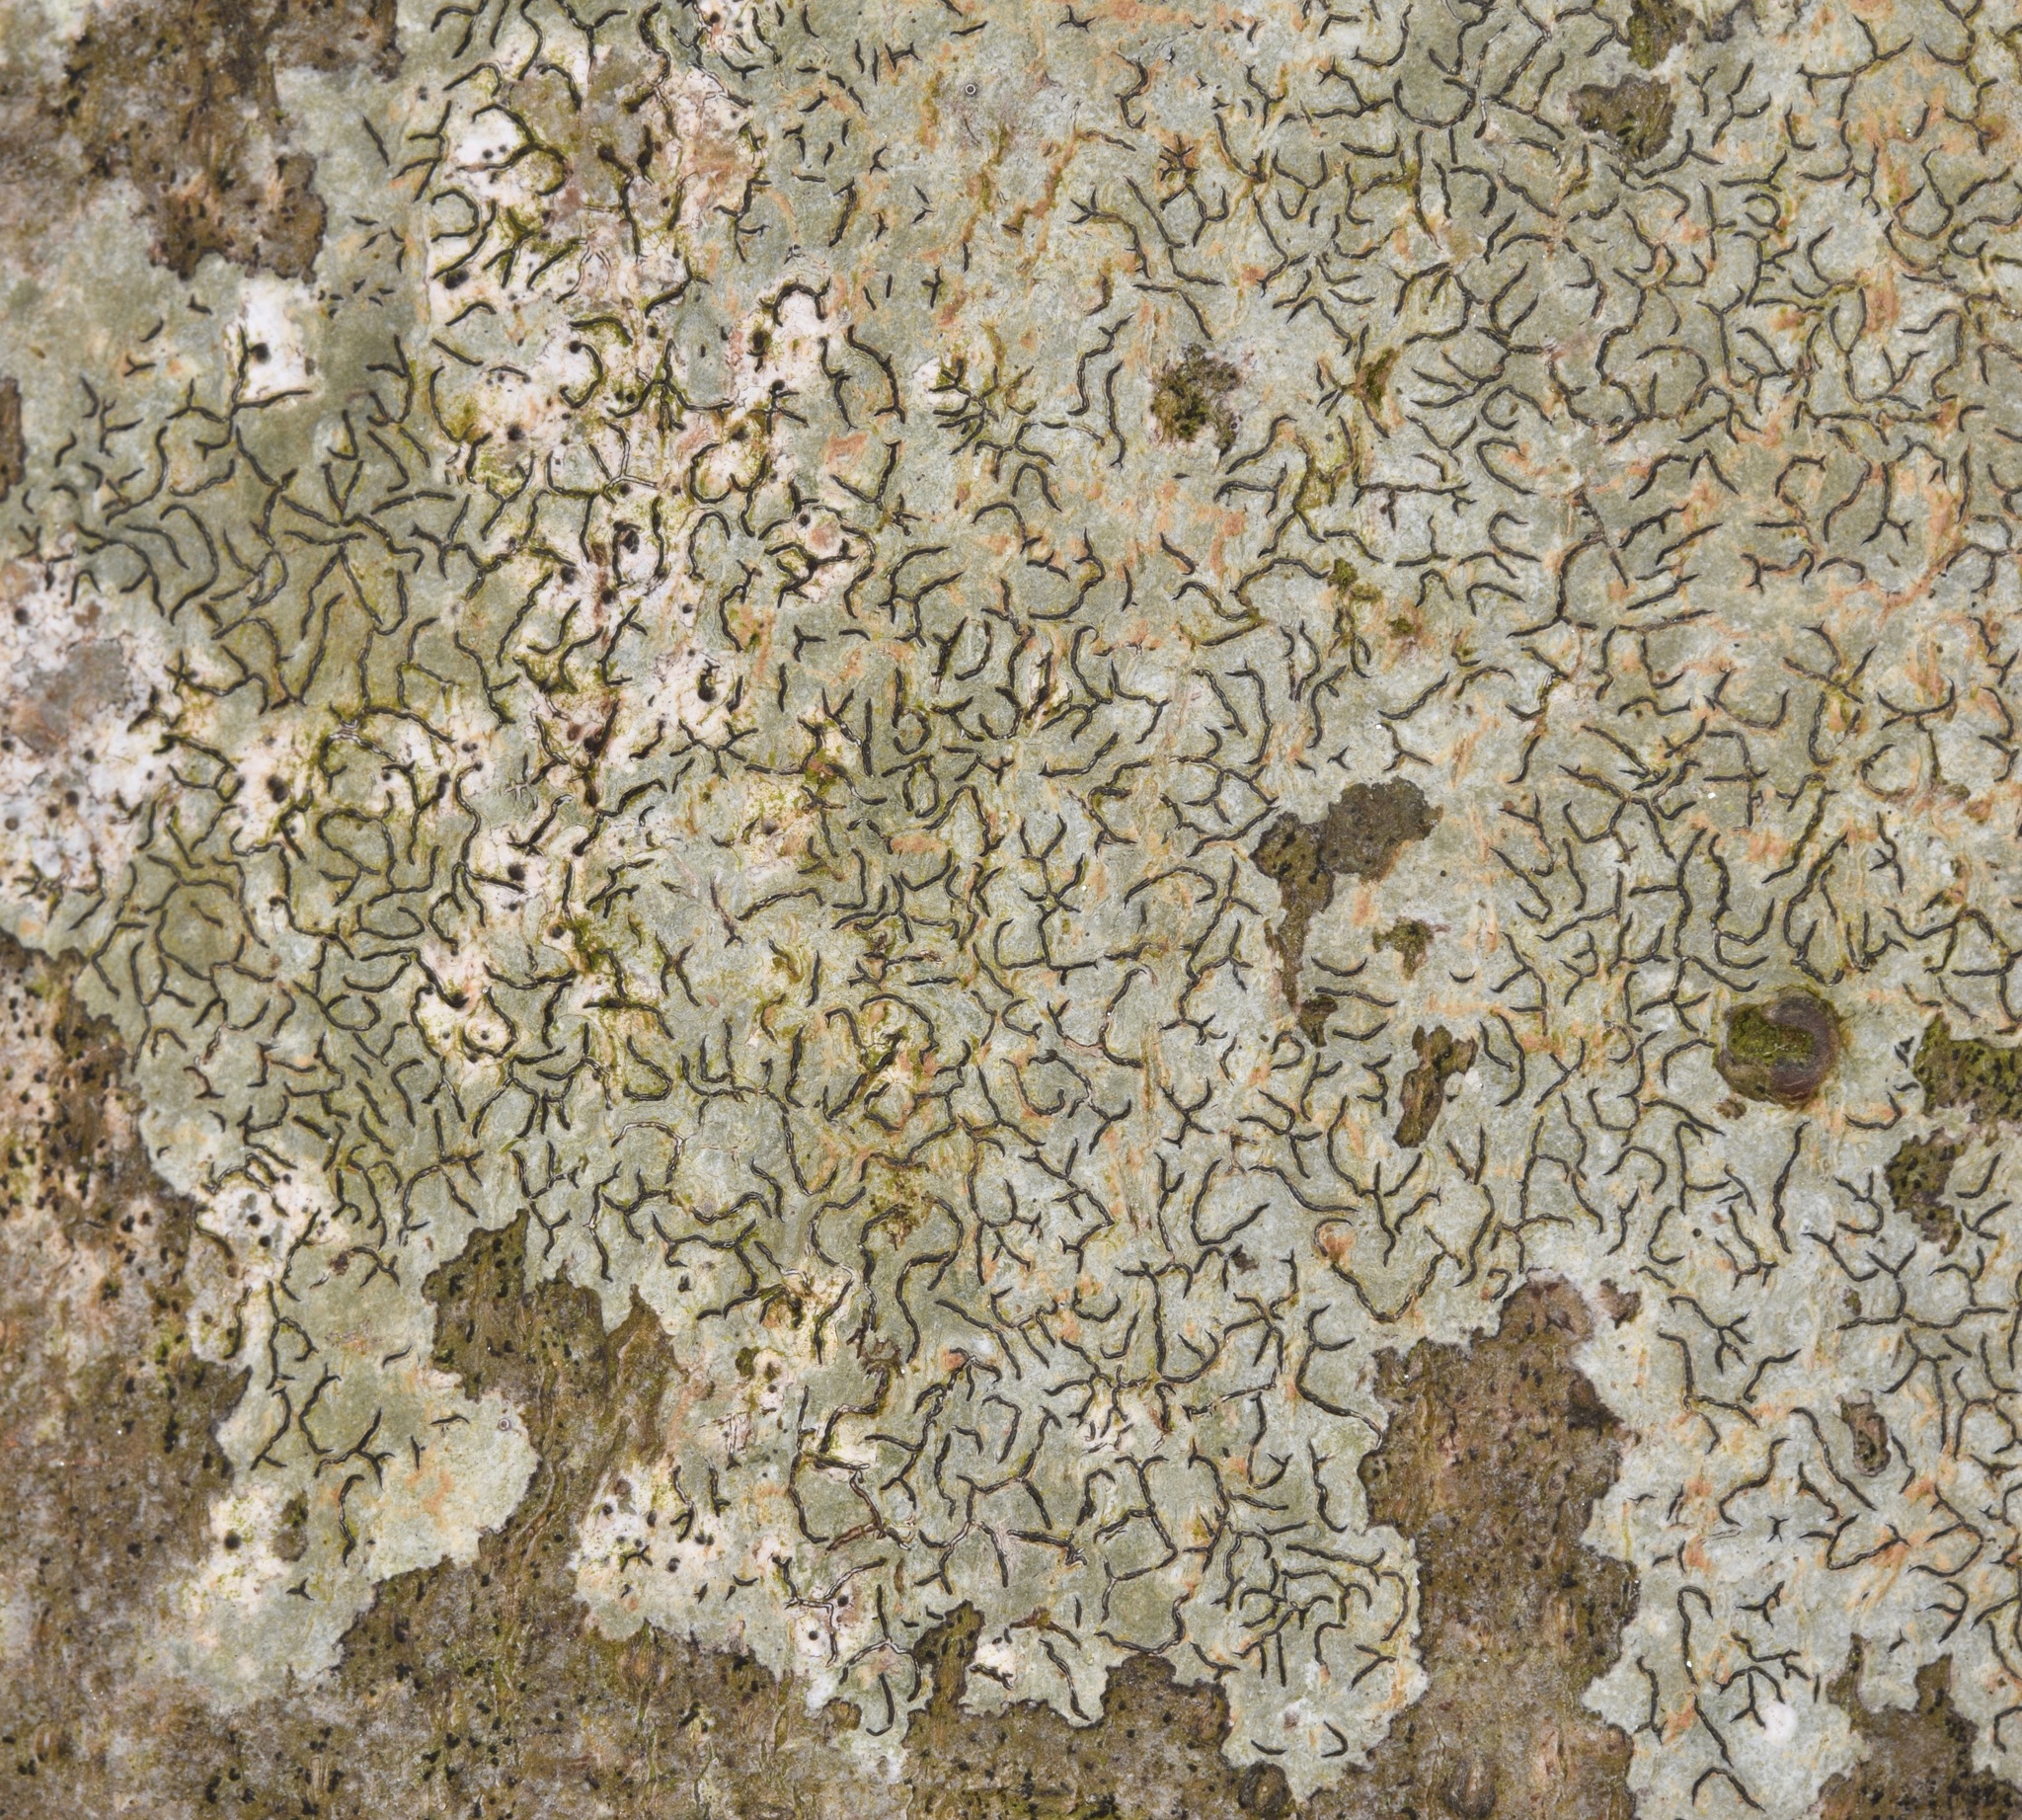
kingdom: Fungi
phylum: Ascomycota
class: Lecanoromycetes
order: Ostropales
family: Graphidaceae
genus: Graphis
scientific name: Graphis scripta
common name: Script lichen
